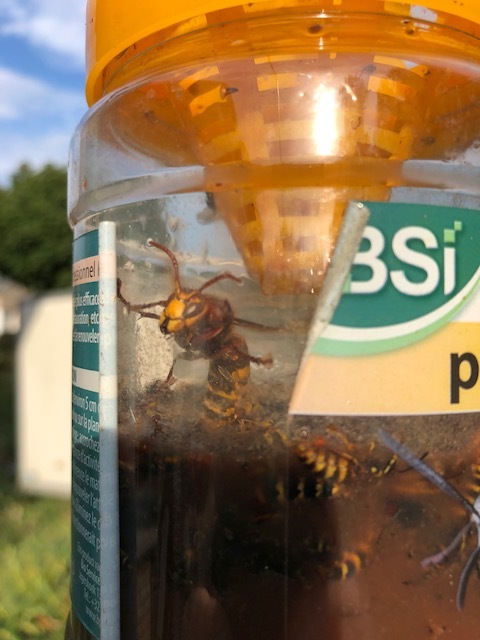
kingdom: Animalia
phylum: Arthropoda
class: Insecta
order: Hymenoptera
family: Vespidae
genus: Vespa
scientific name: Vespa crabro
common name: Hornet
